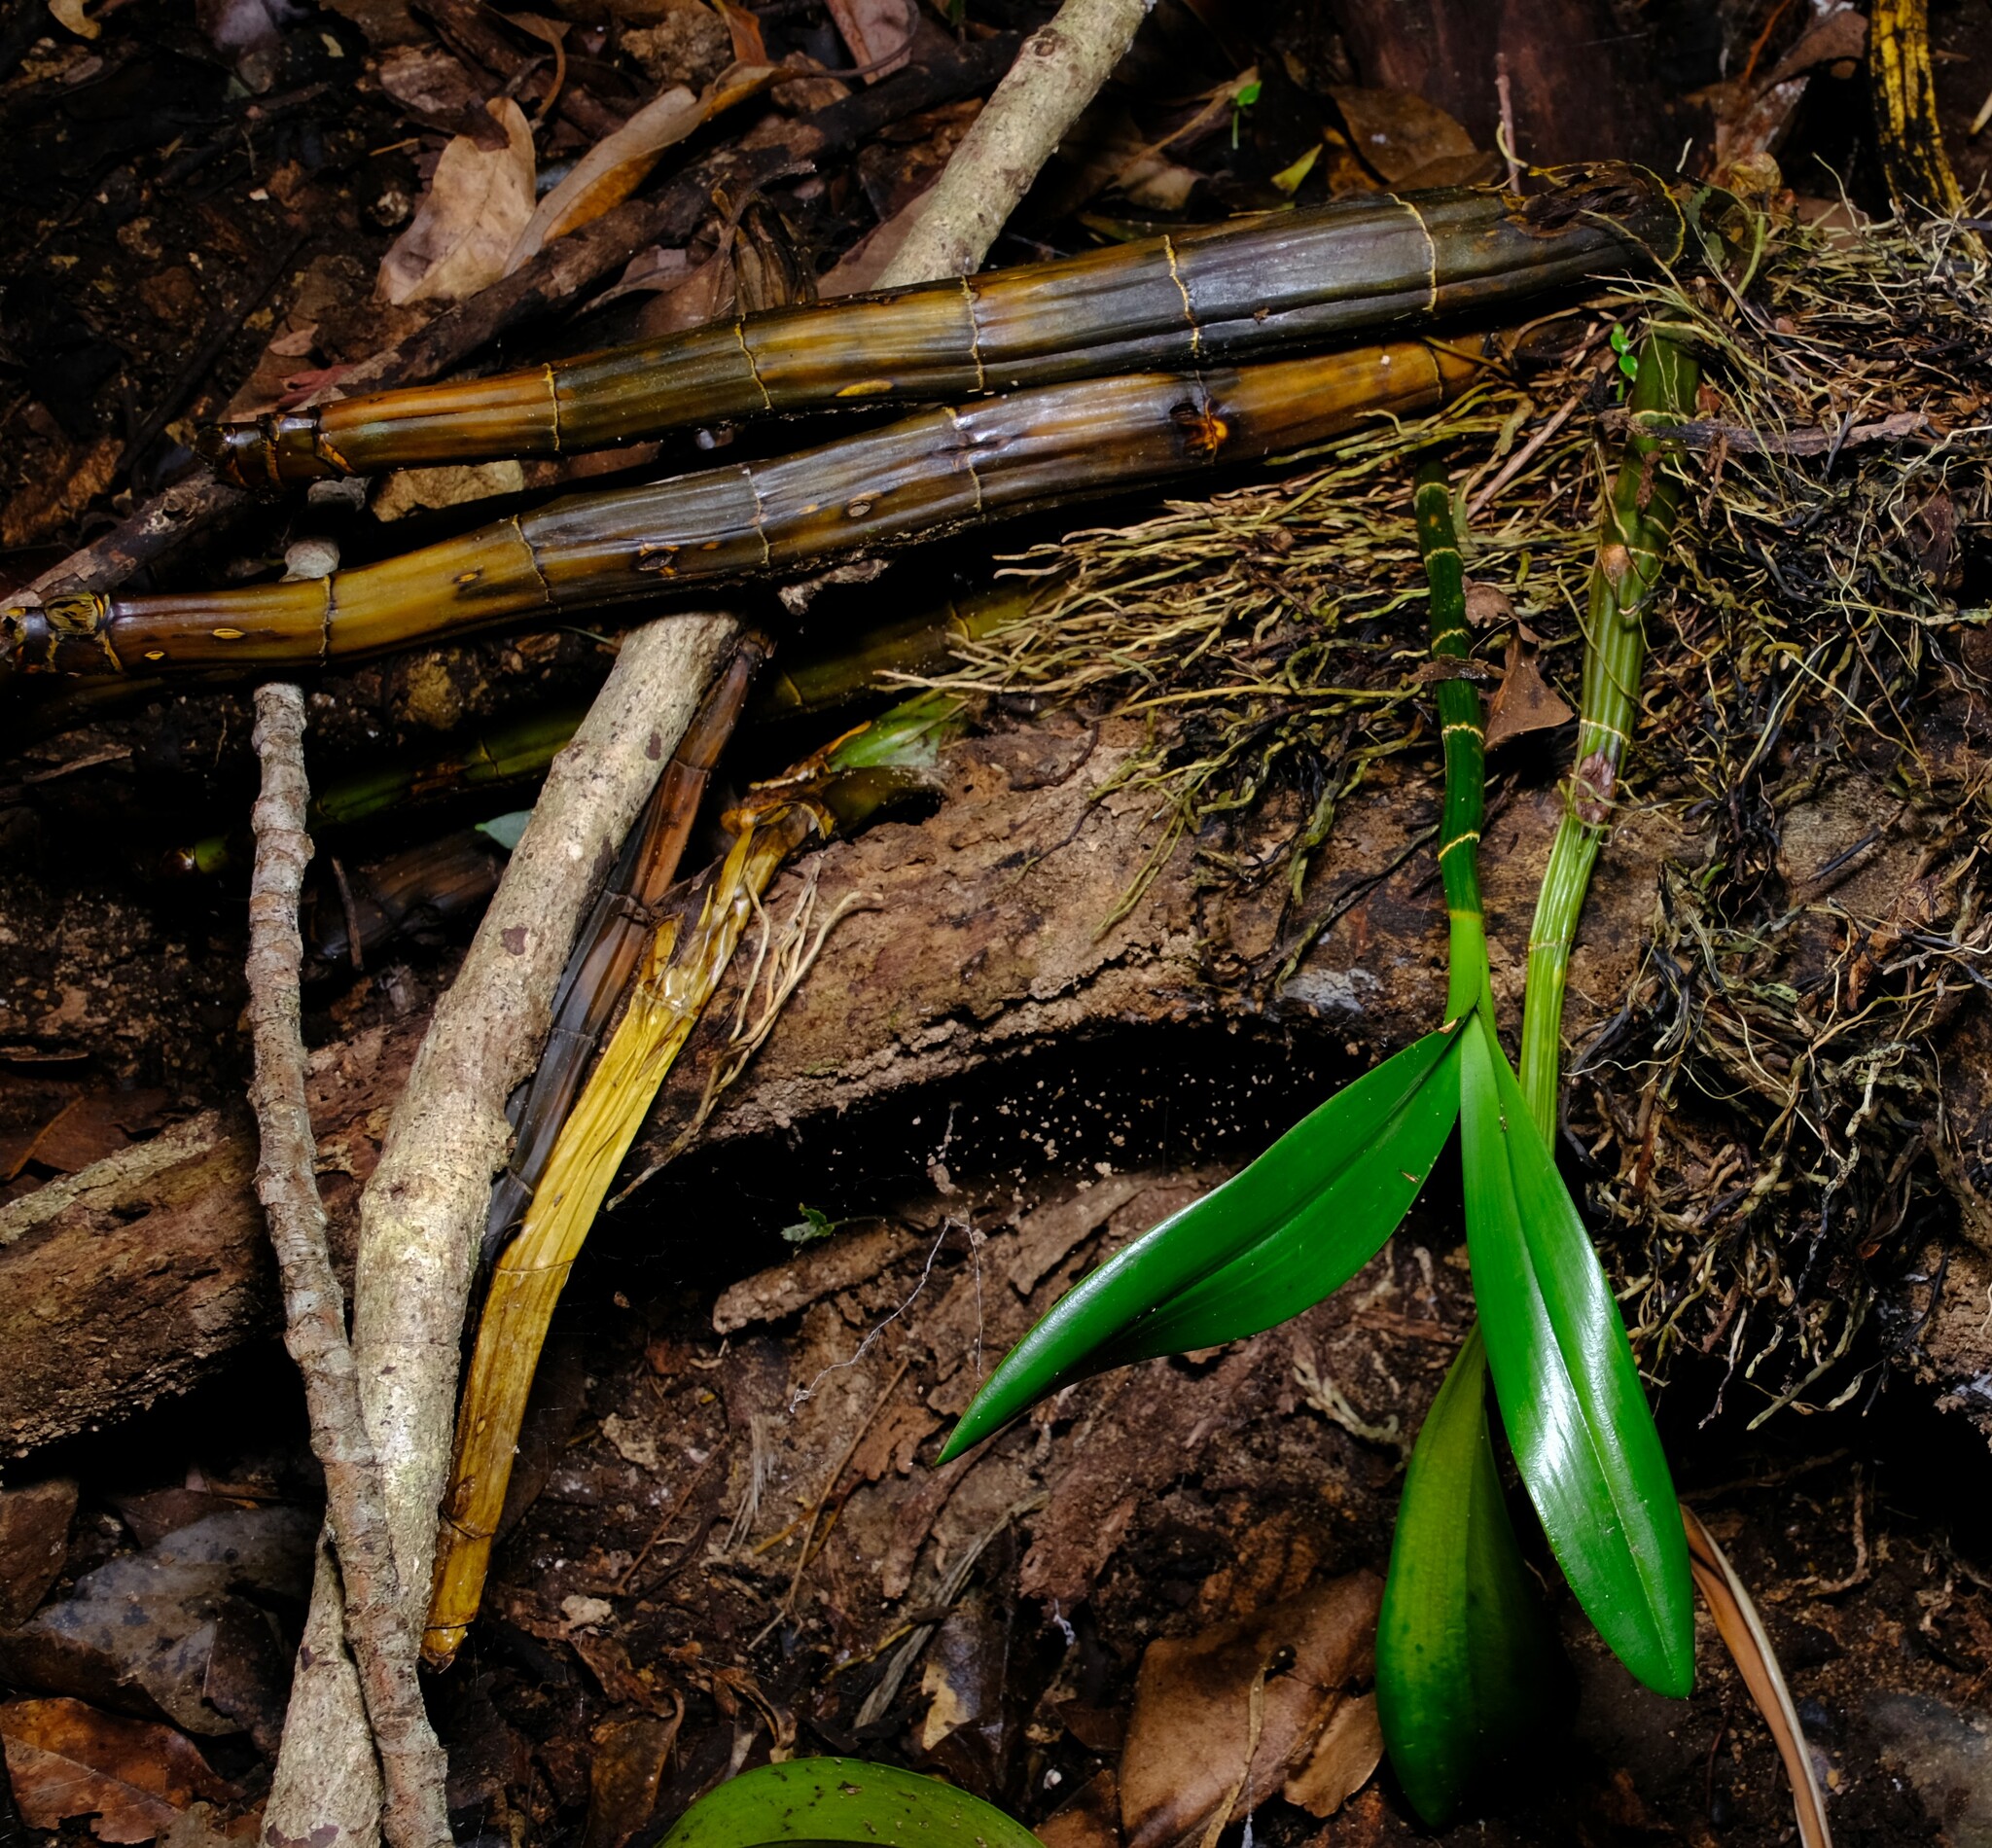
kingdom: Plantae
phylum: Tracheophyta
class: Liliopsida
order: Asparagales
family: Orchidaceae
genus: Dendrobium
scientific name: Dendrobium speciosum
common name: Rock-lily
